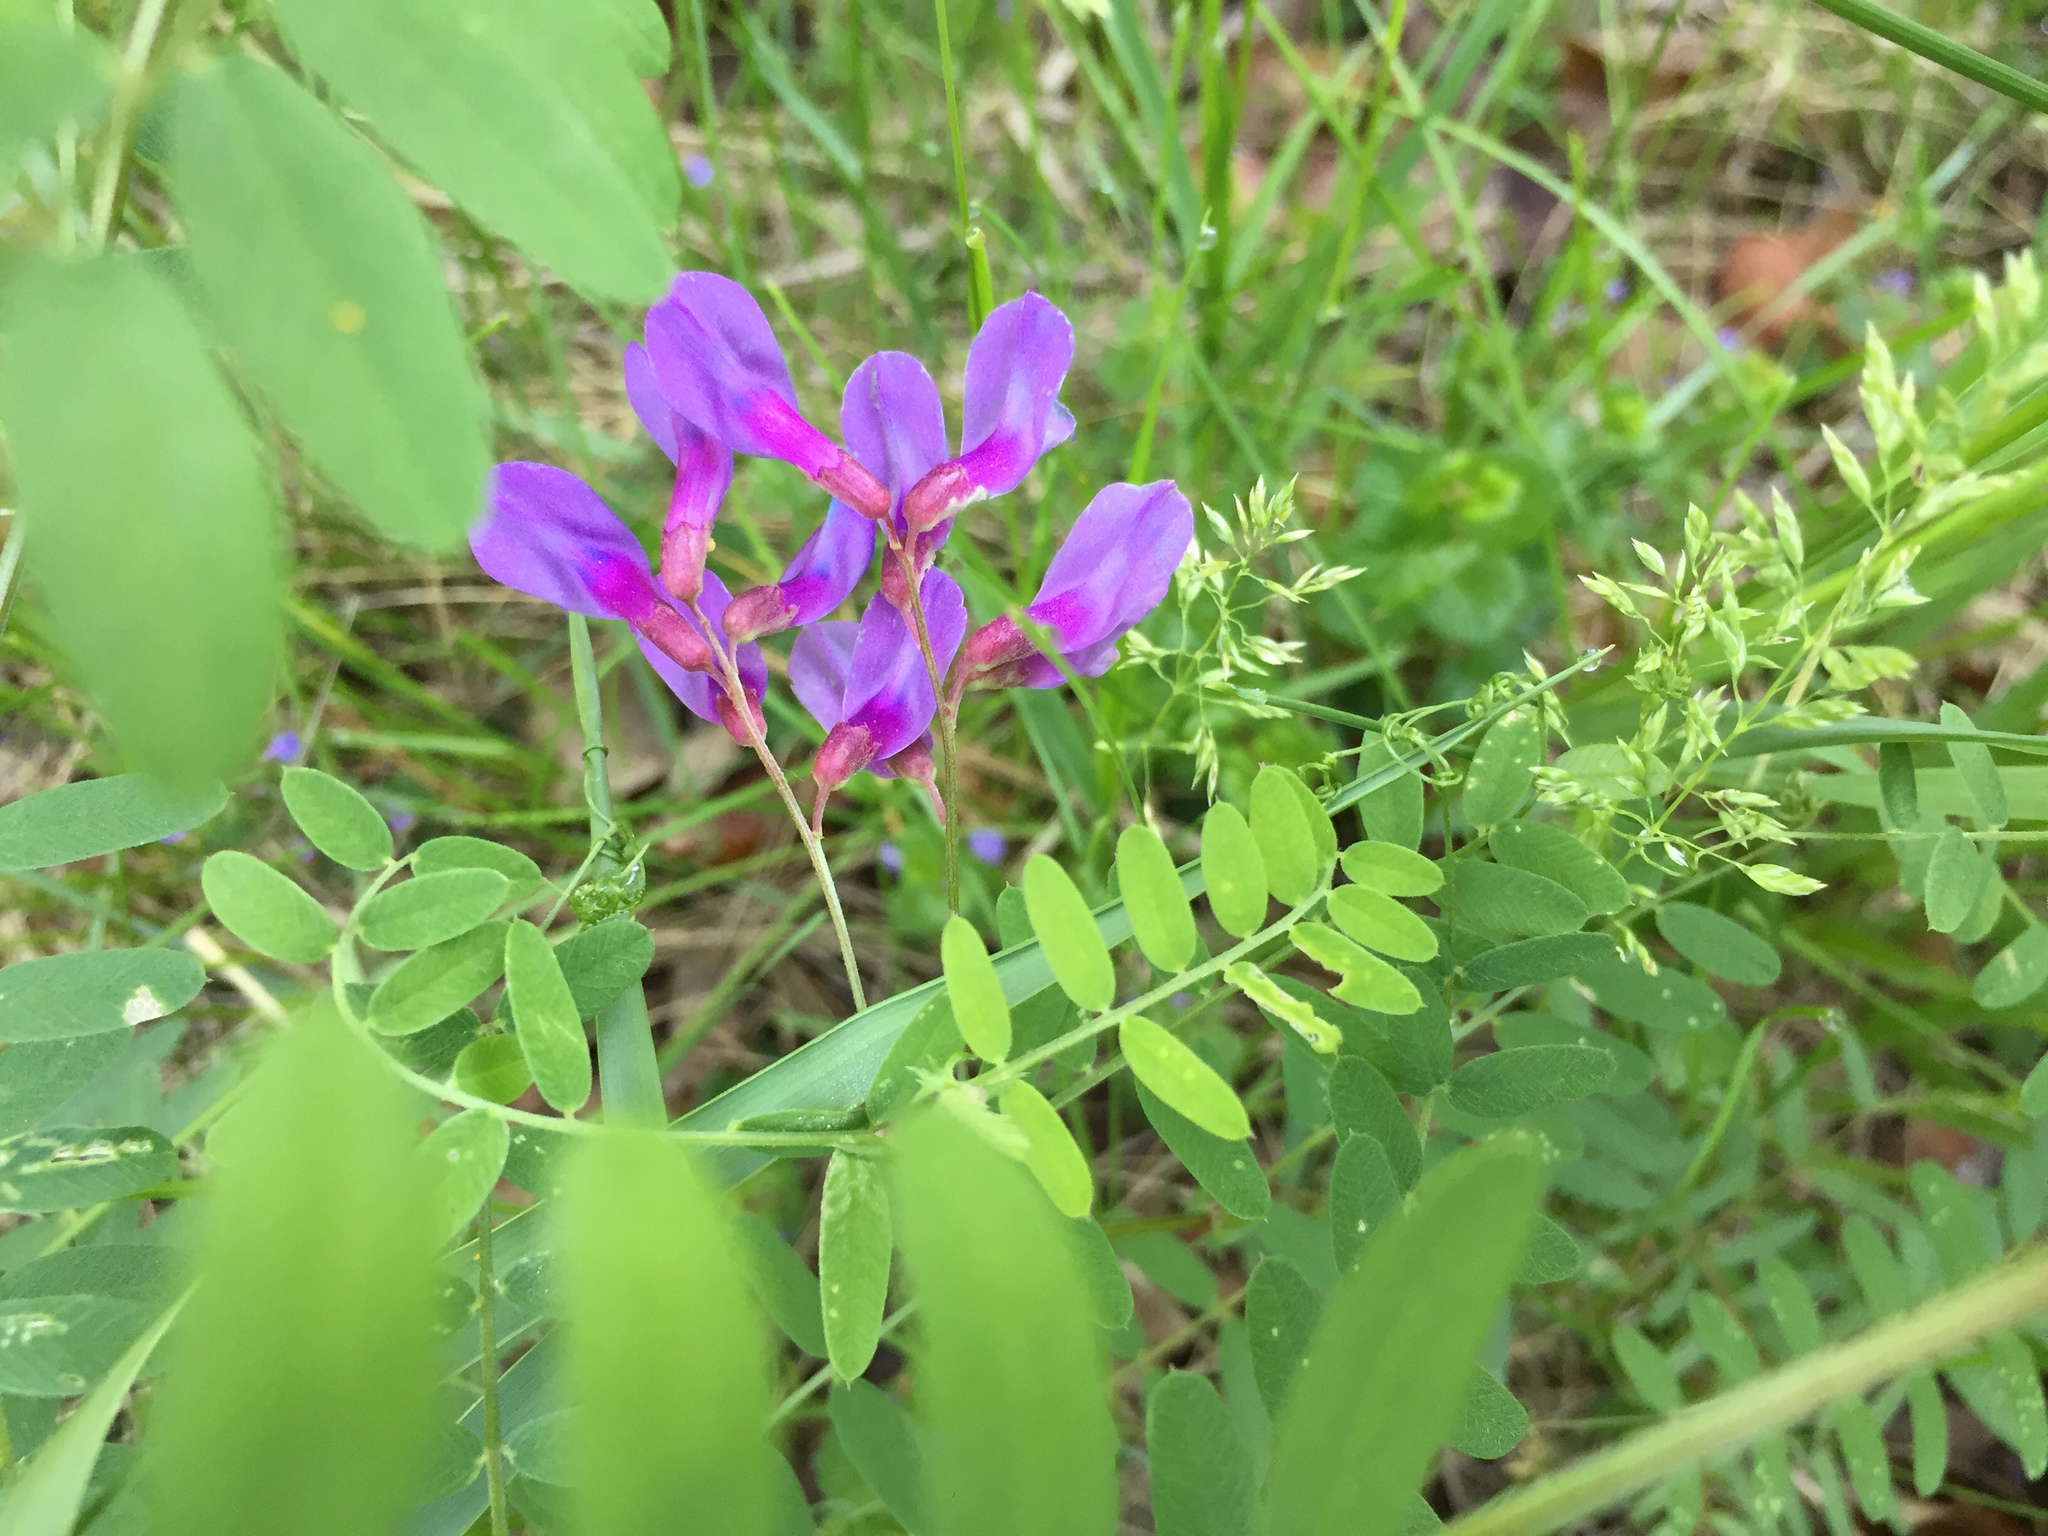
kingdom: Plantae
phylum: Tracheophyta
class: Magnoliopsida
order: Fabales
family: Fabaceae
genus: Vicia
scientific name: Vicia americana
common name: American vetch
